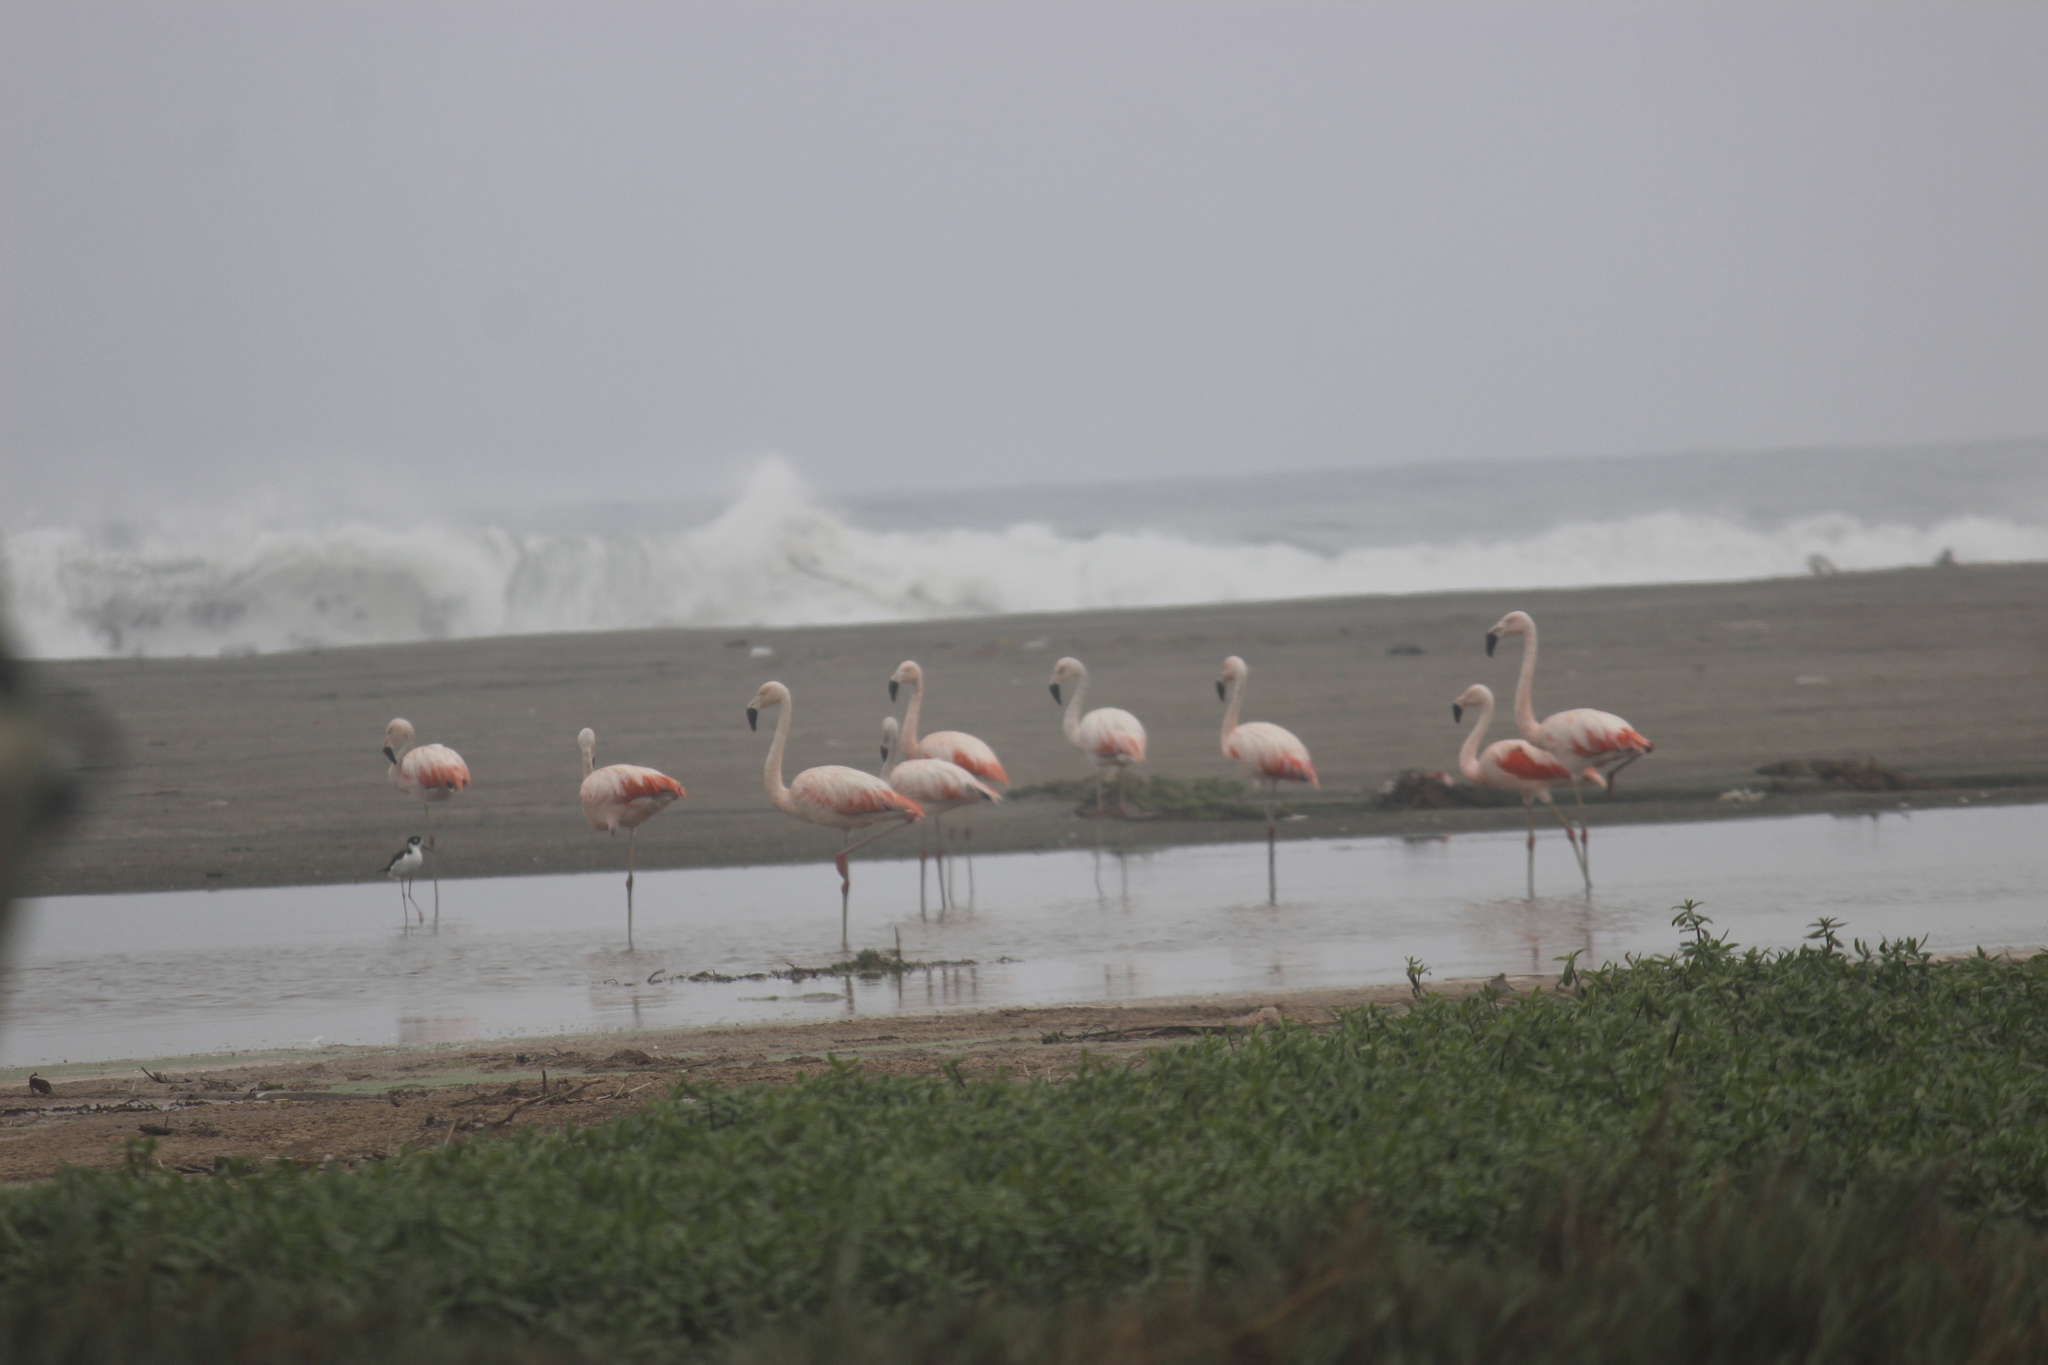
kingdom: Animalia
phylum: Chordata
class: Aves
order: Phoenicopteriformes
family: Phoenicopteridae
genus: Phoenicopterus
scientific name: Phoenicopterus chilensis
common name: Chilean flamingo
